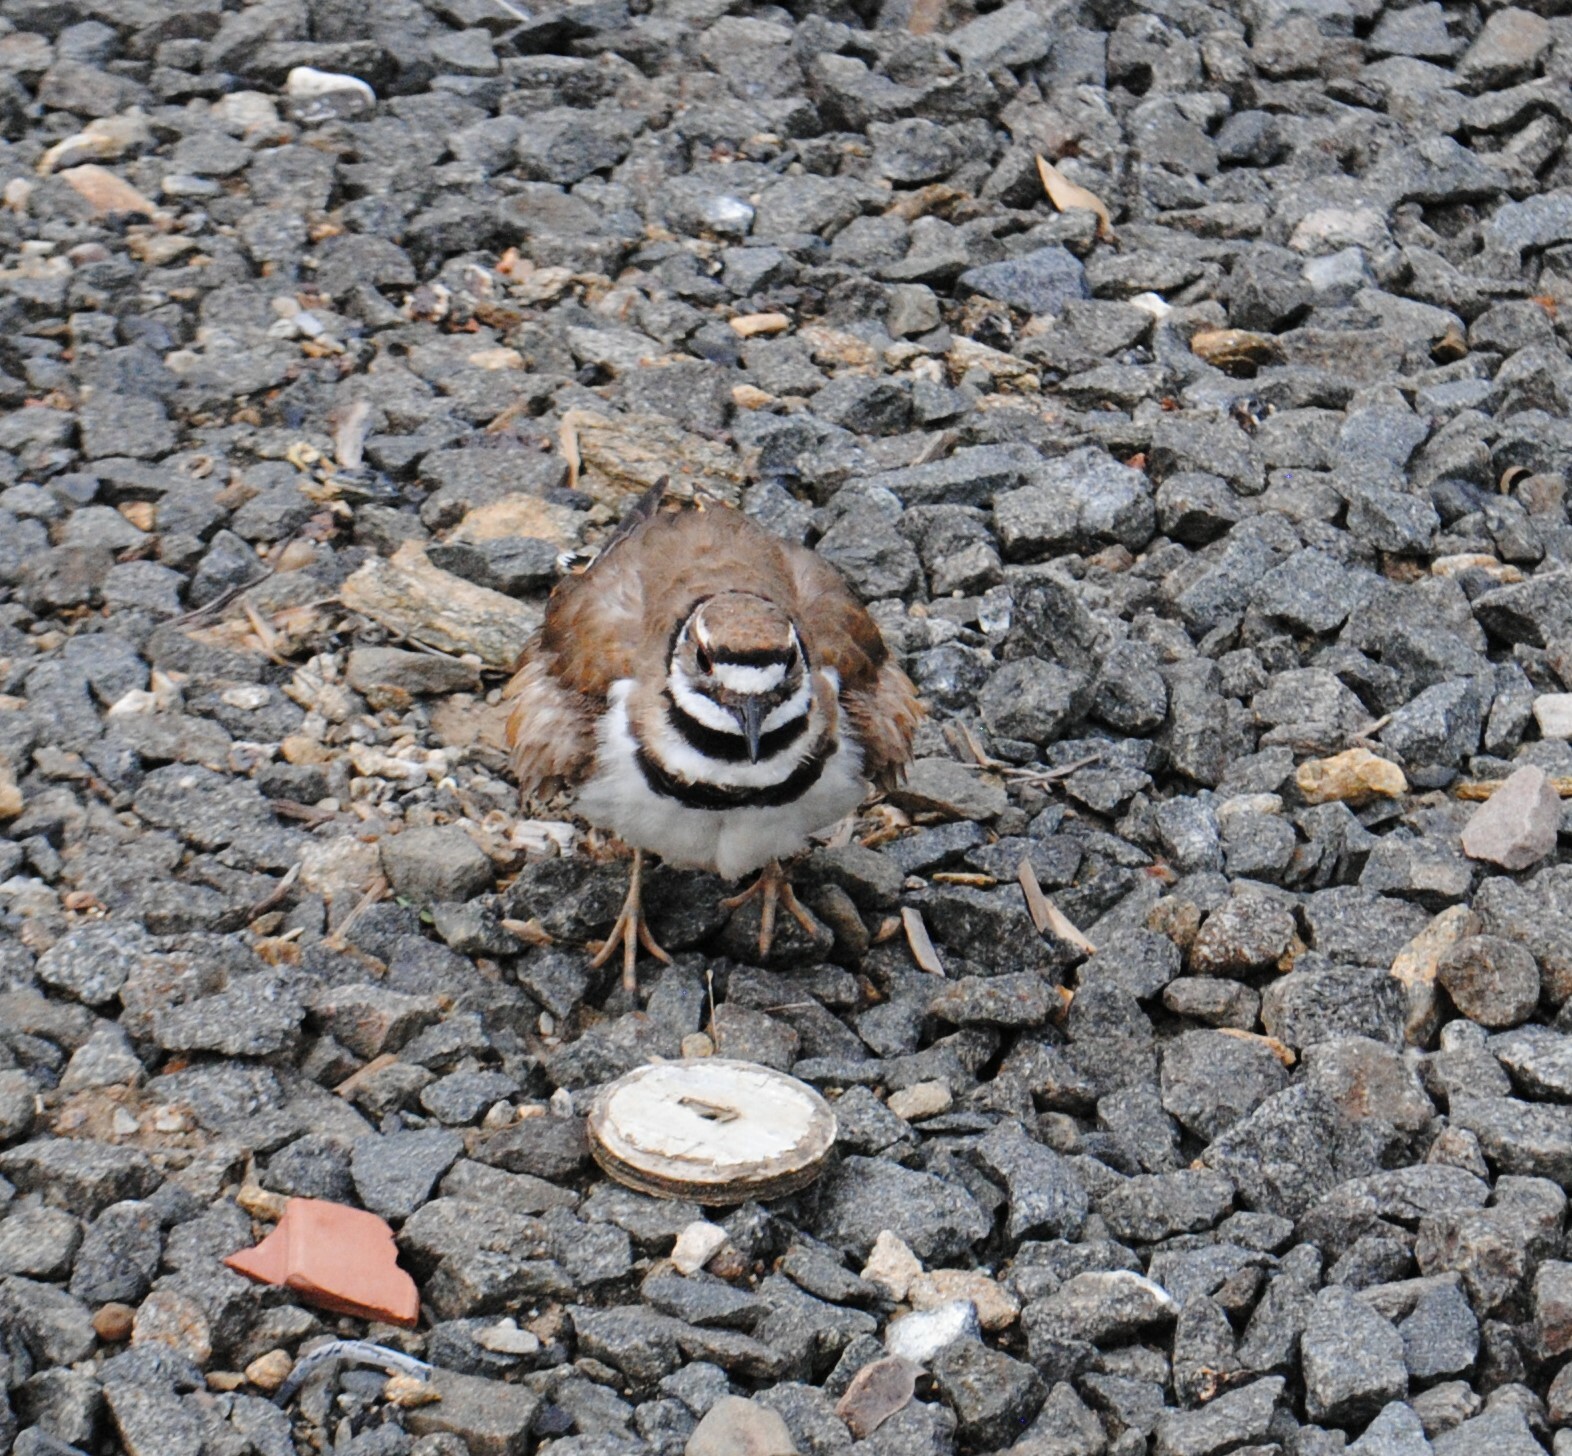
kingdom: Animalia
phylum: Chordata
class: Aves
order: Charadriiformes
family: Charadriidae
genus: Charadrius
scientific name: Charadrius vociferus
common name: Killdeer
